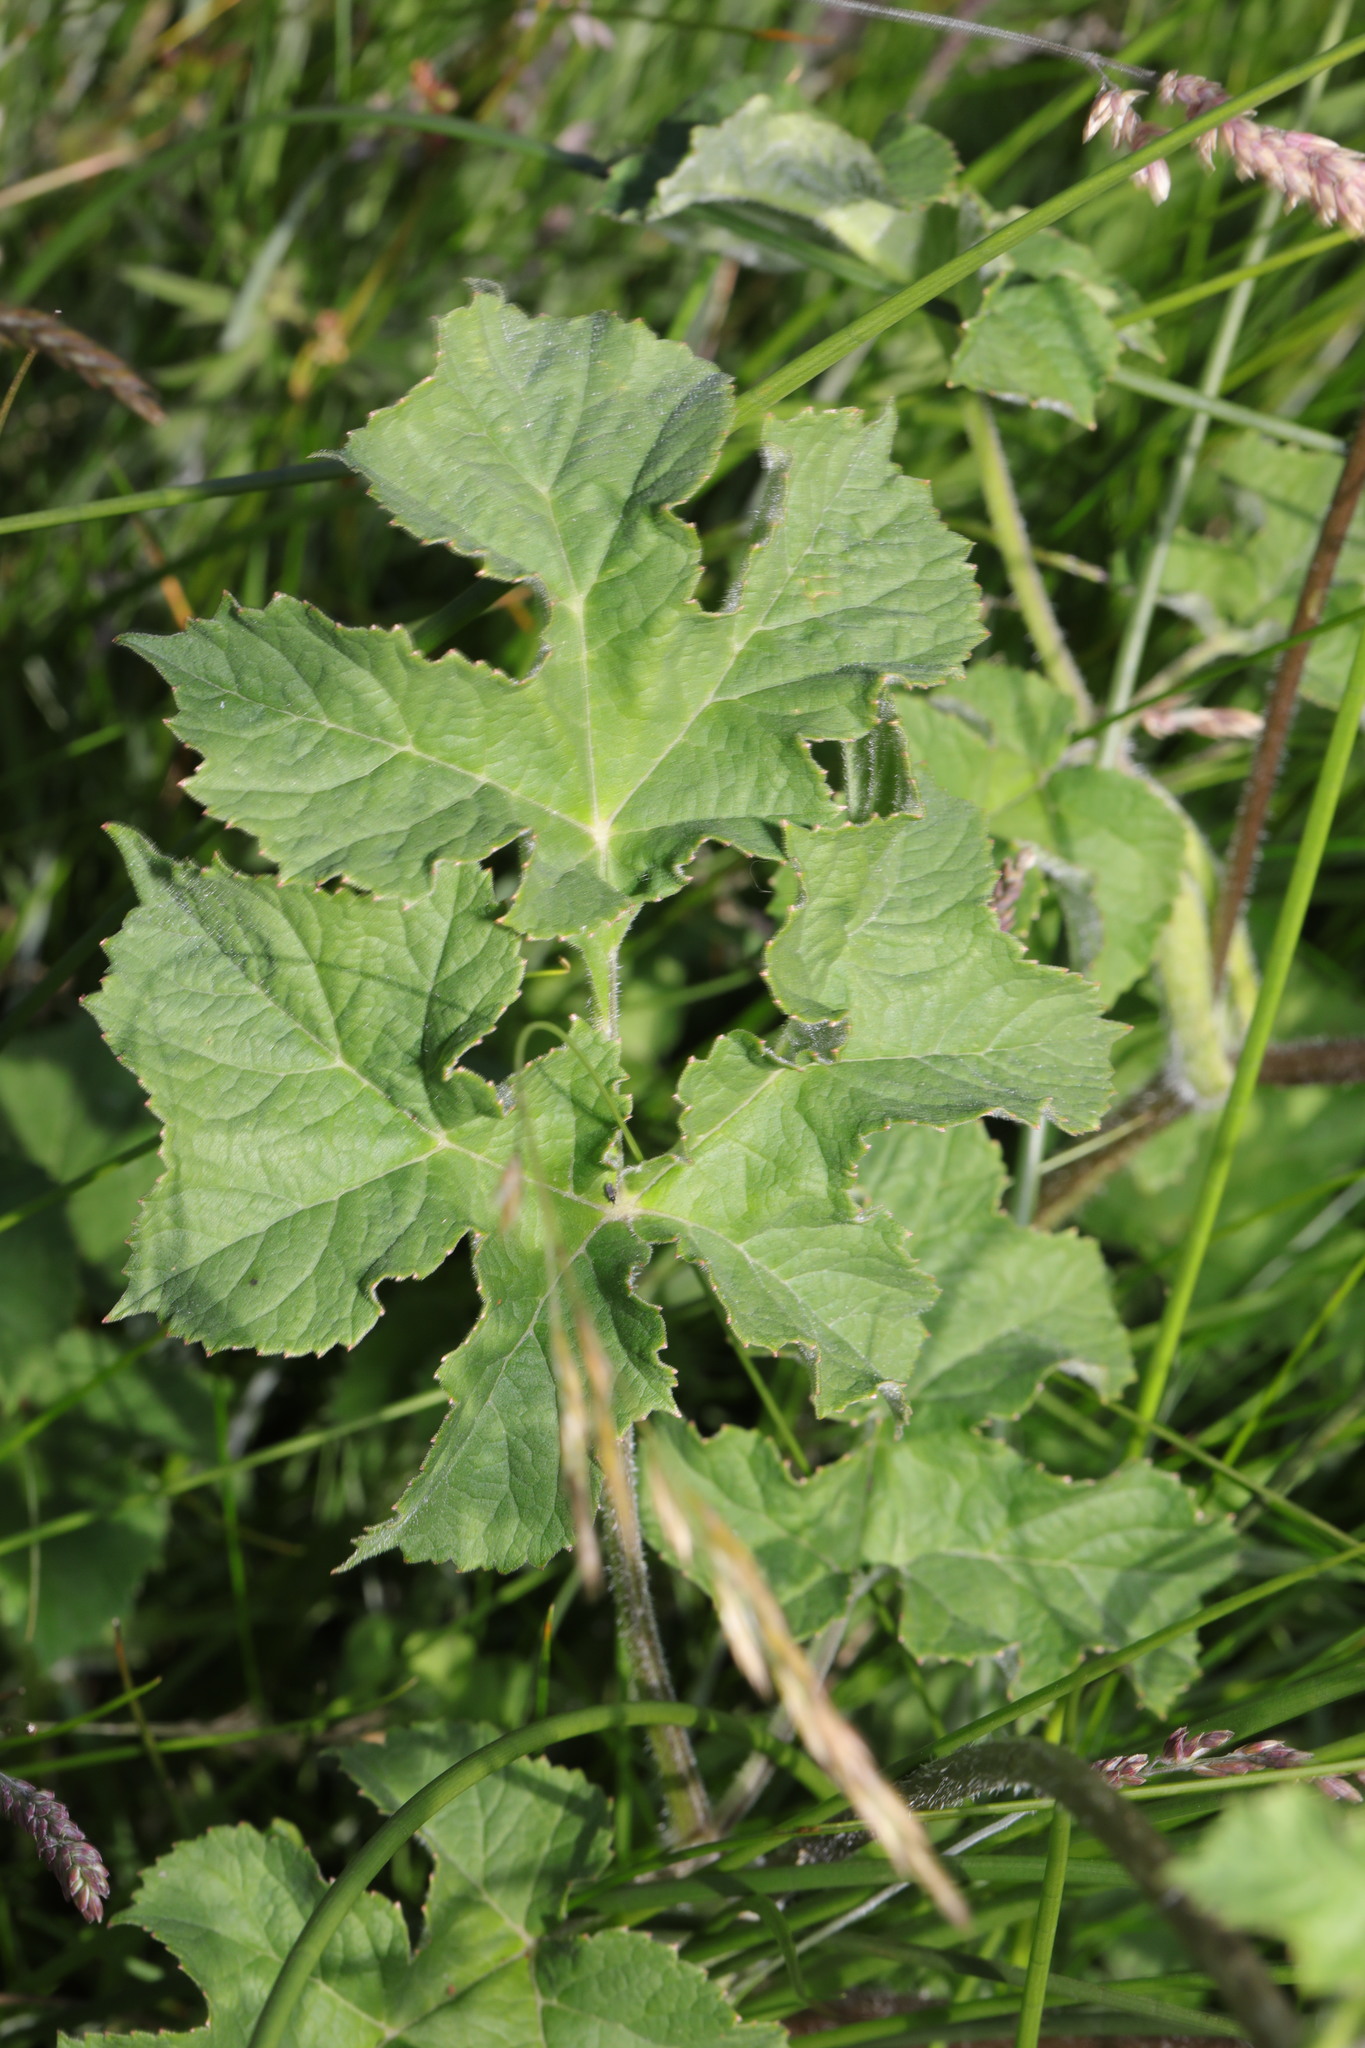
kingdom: Plantae
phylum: Tracheophyta
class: Magnoliopsida
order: Apiales
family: Apiaceae
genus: Heracleum
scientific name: Heracleum sphondylium
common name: Hogweed
